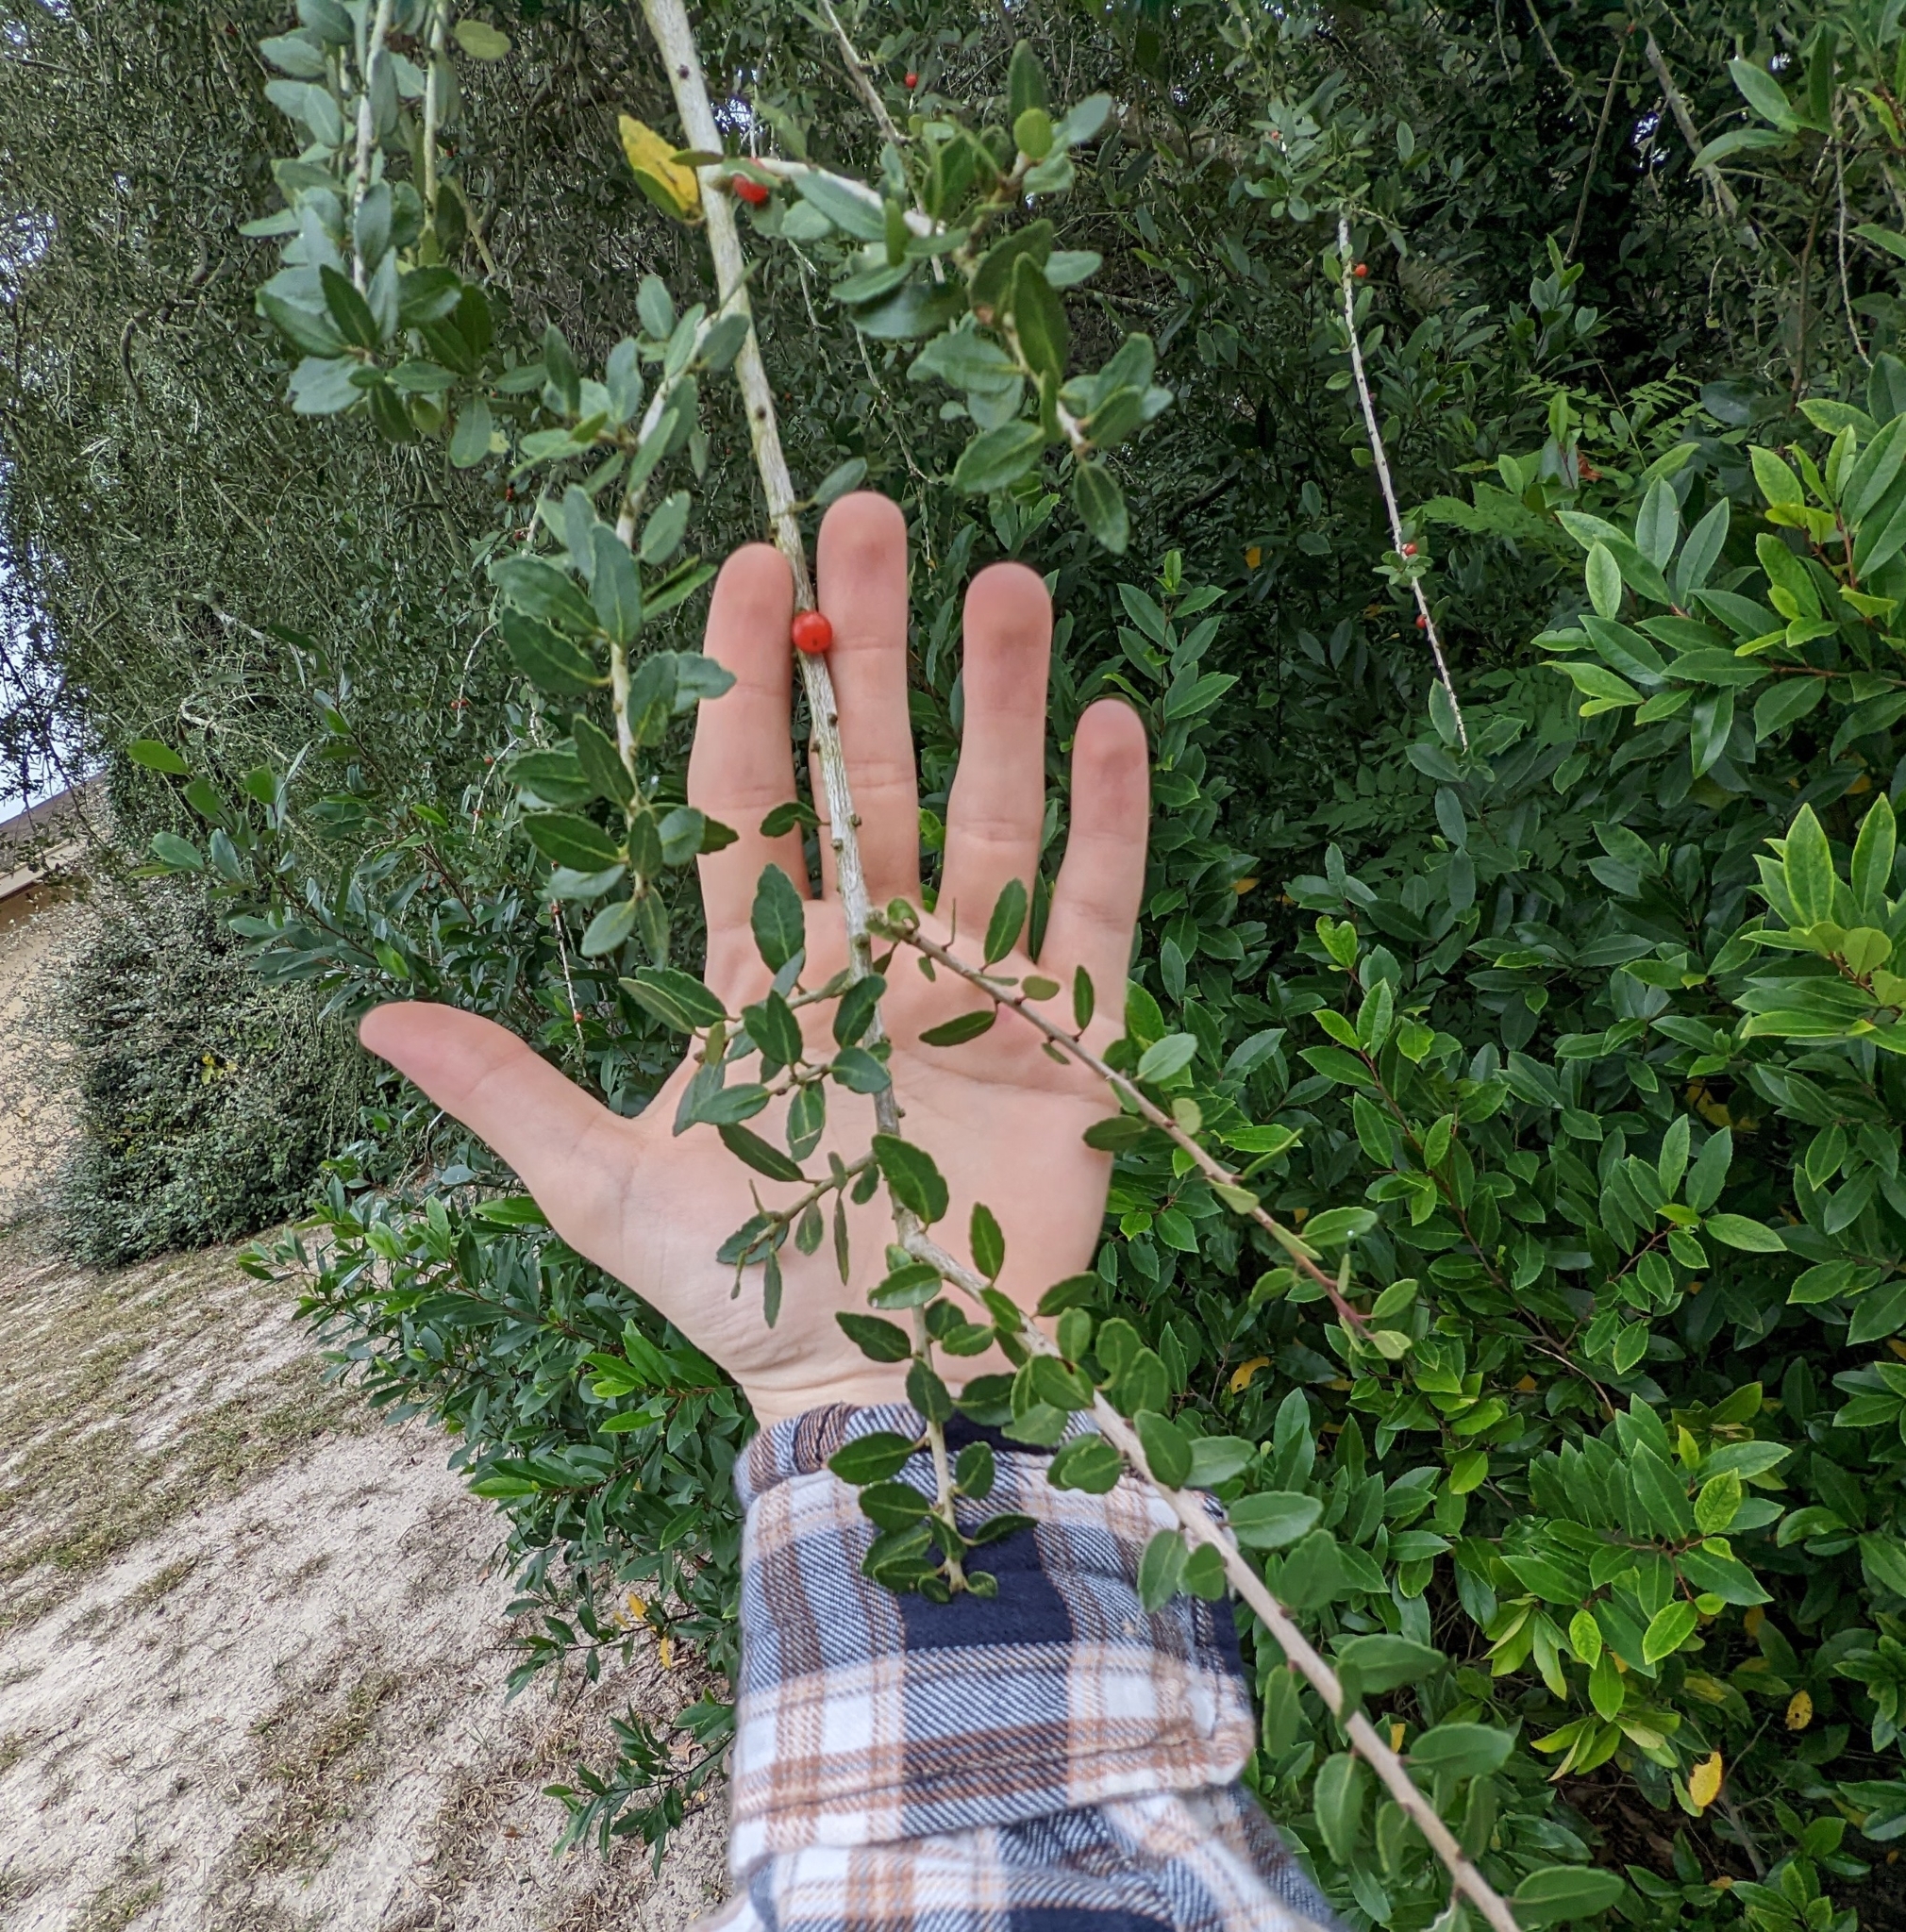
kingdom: Plantae
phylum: Tracheophyta
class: Magnoliopsida
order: Aquifoliales
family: Aquifoliaceae
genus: Ilex
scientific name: Ilex vomitoria
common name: Yaupon holly
